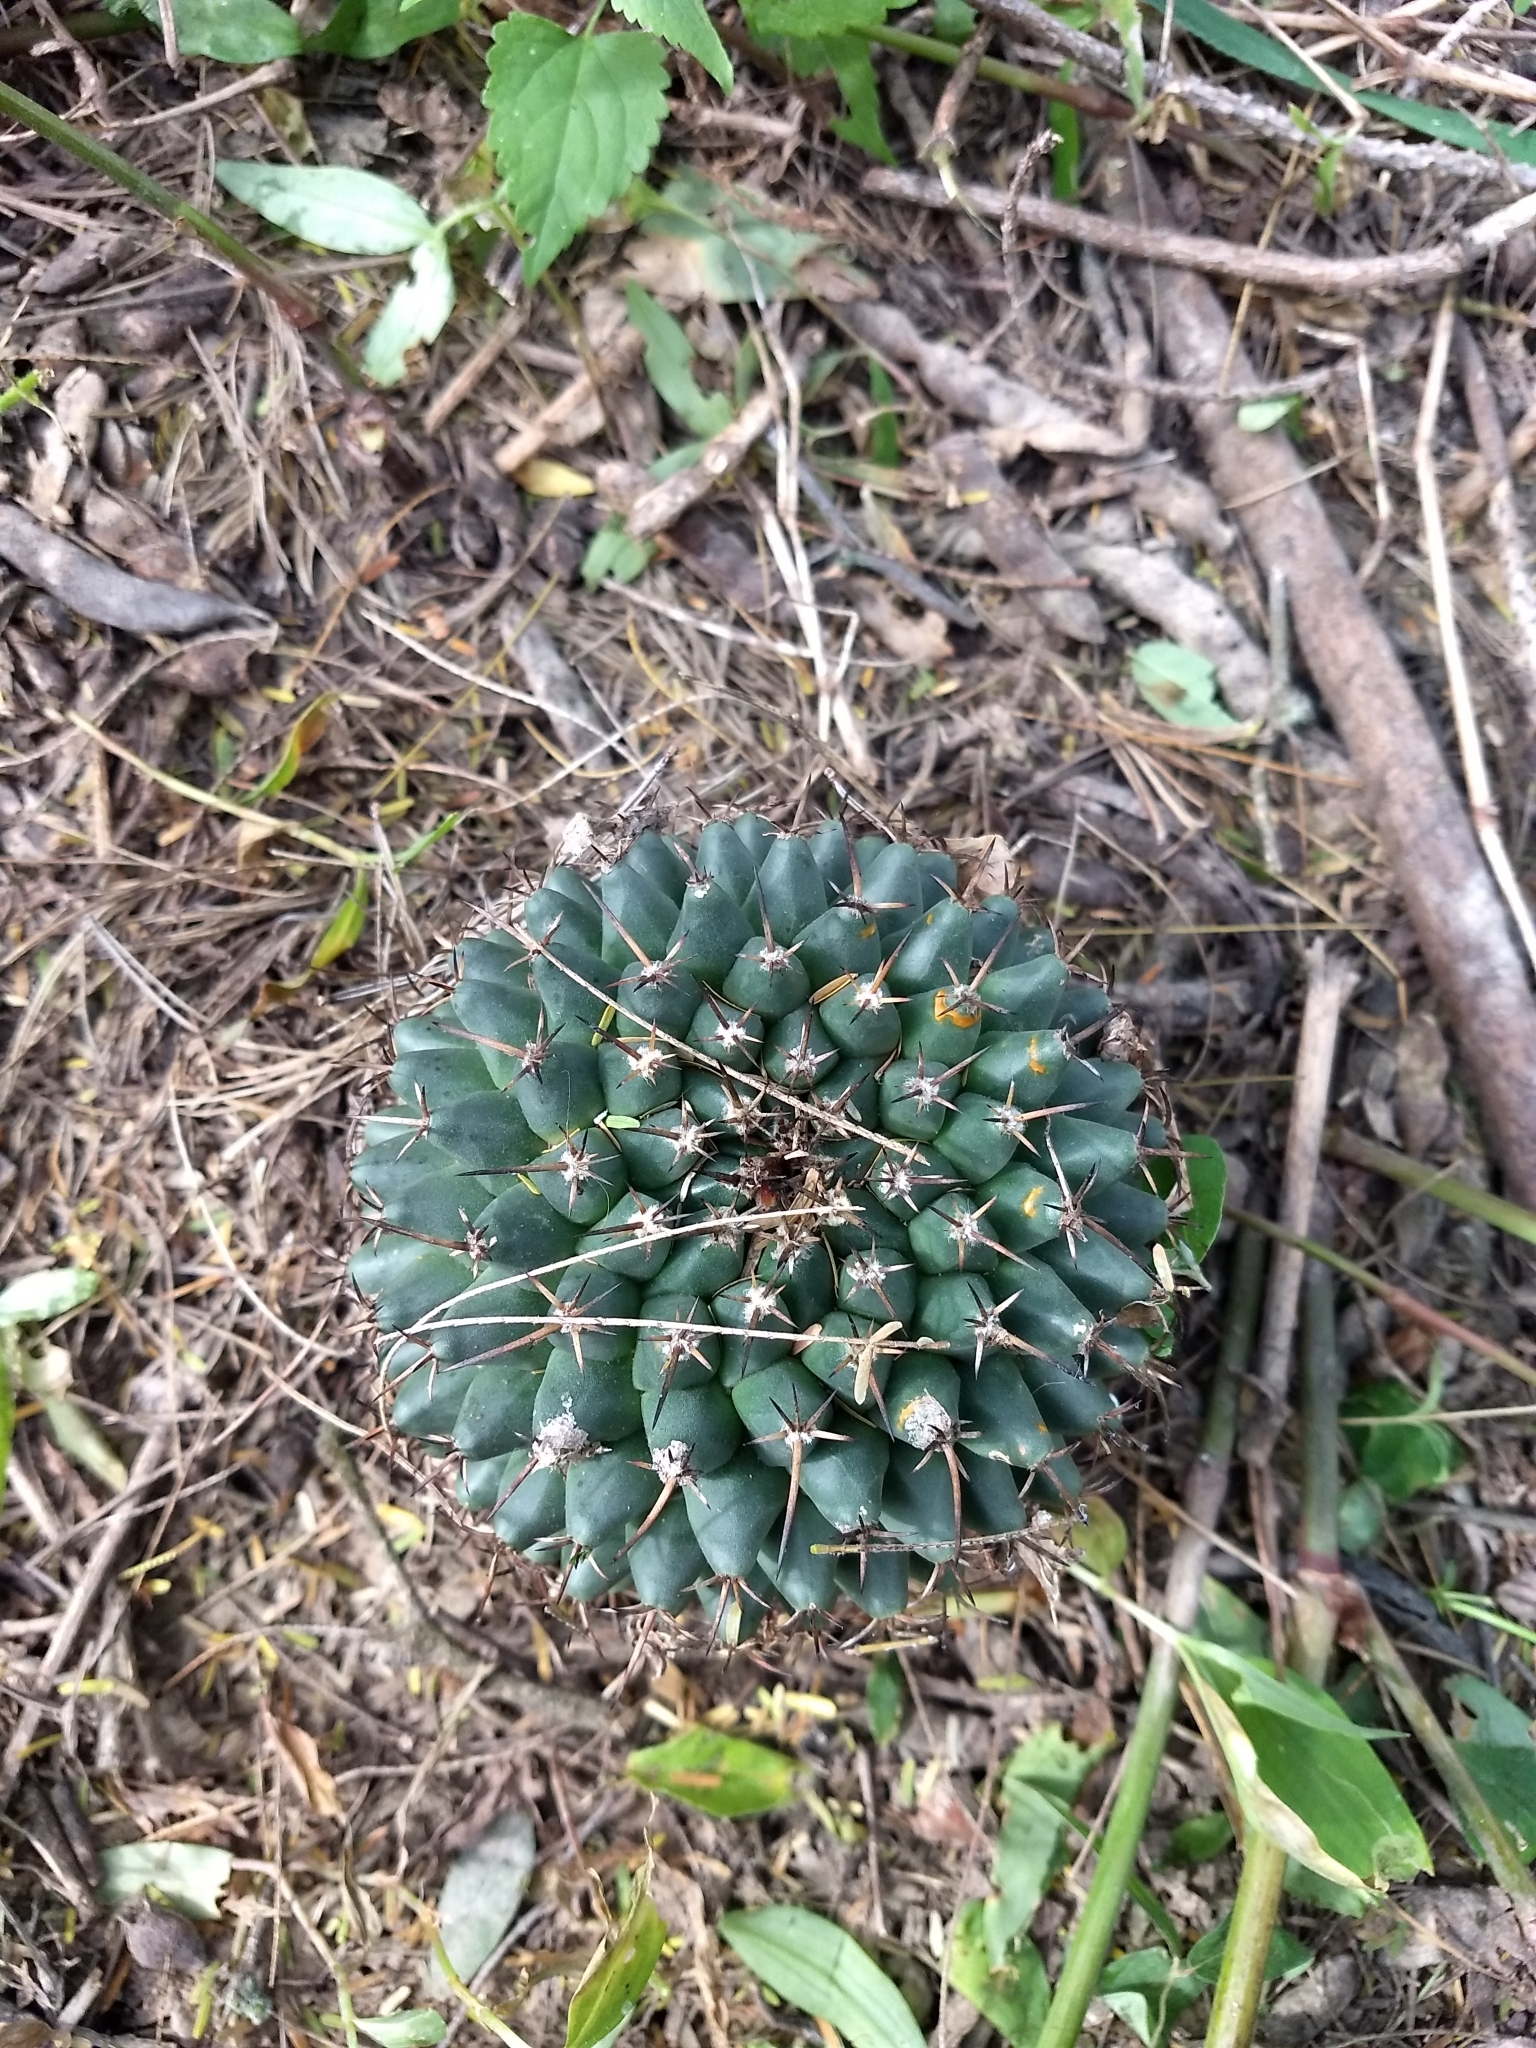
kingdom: Plantae
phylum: Tracheophyta
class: Magnoliopsida
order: Caryophyllales
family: Cactaceae
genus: Mammillaria
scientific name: Mammillaria magnimamma
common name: Mexican pincushion
